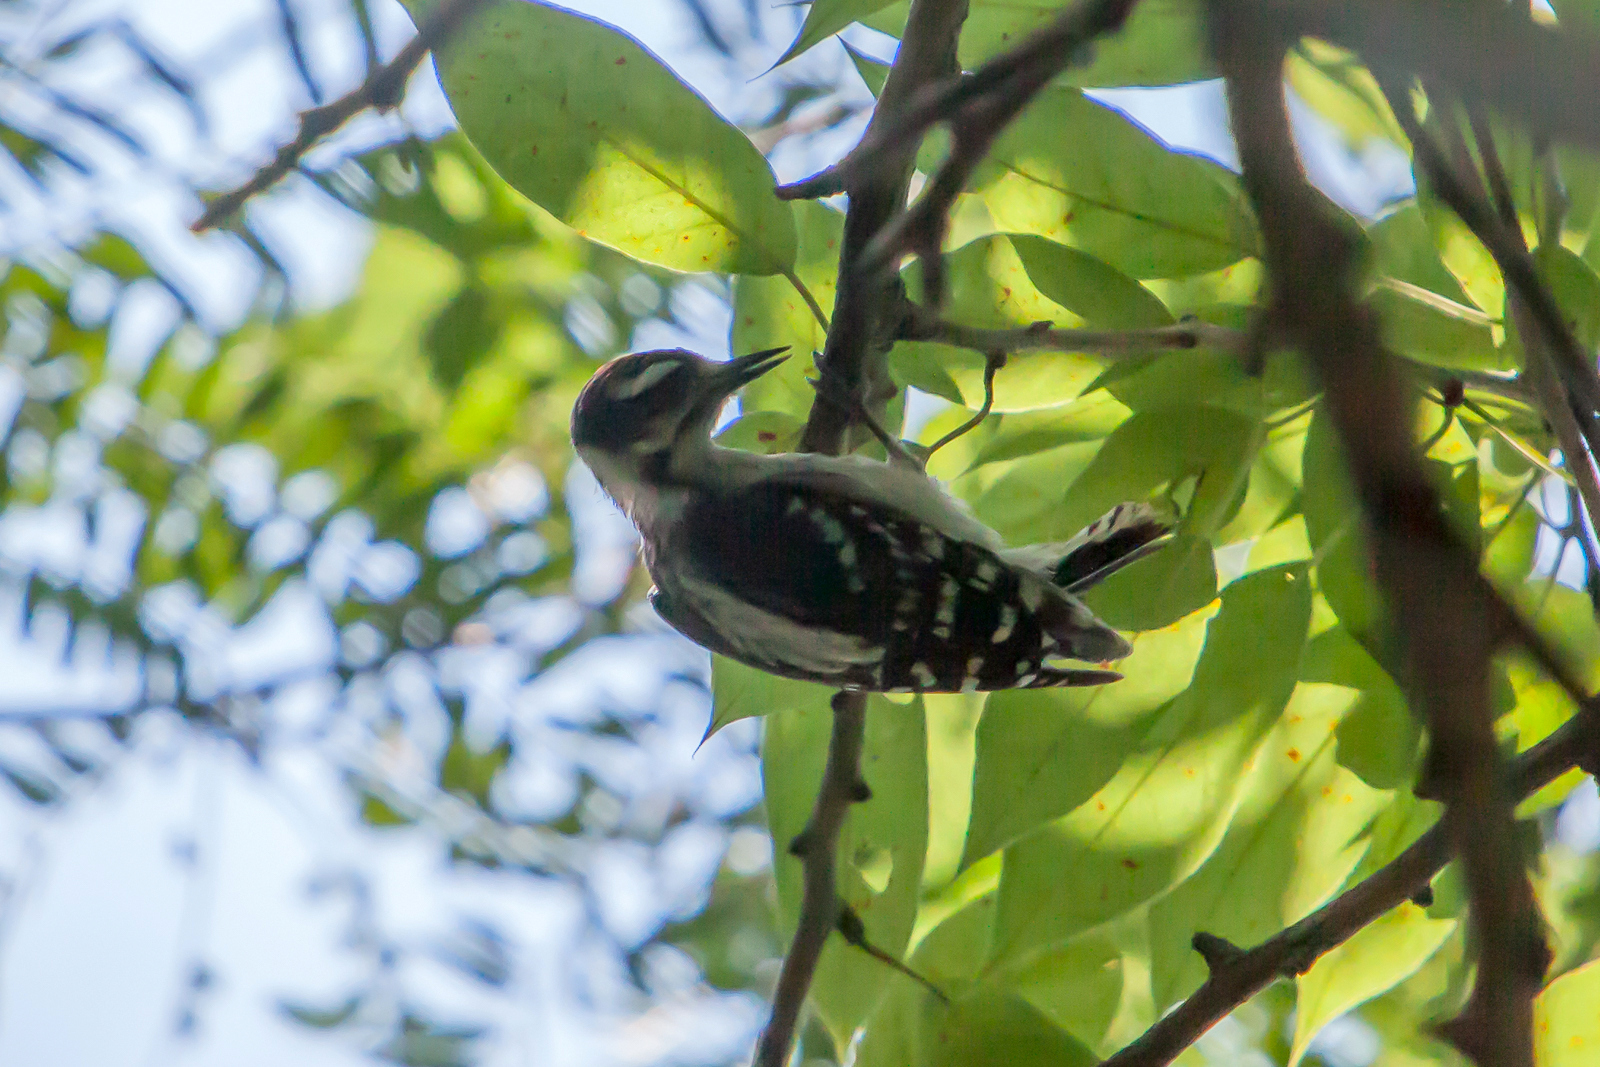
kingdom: Animalia
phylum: Chordata
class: Aves
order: Piciformes
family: Picidae
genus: Dryobates
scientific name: Dryobates pubescens
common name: Downy woodpecker
